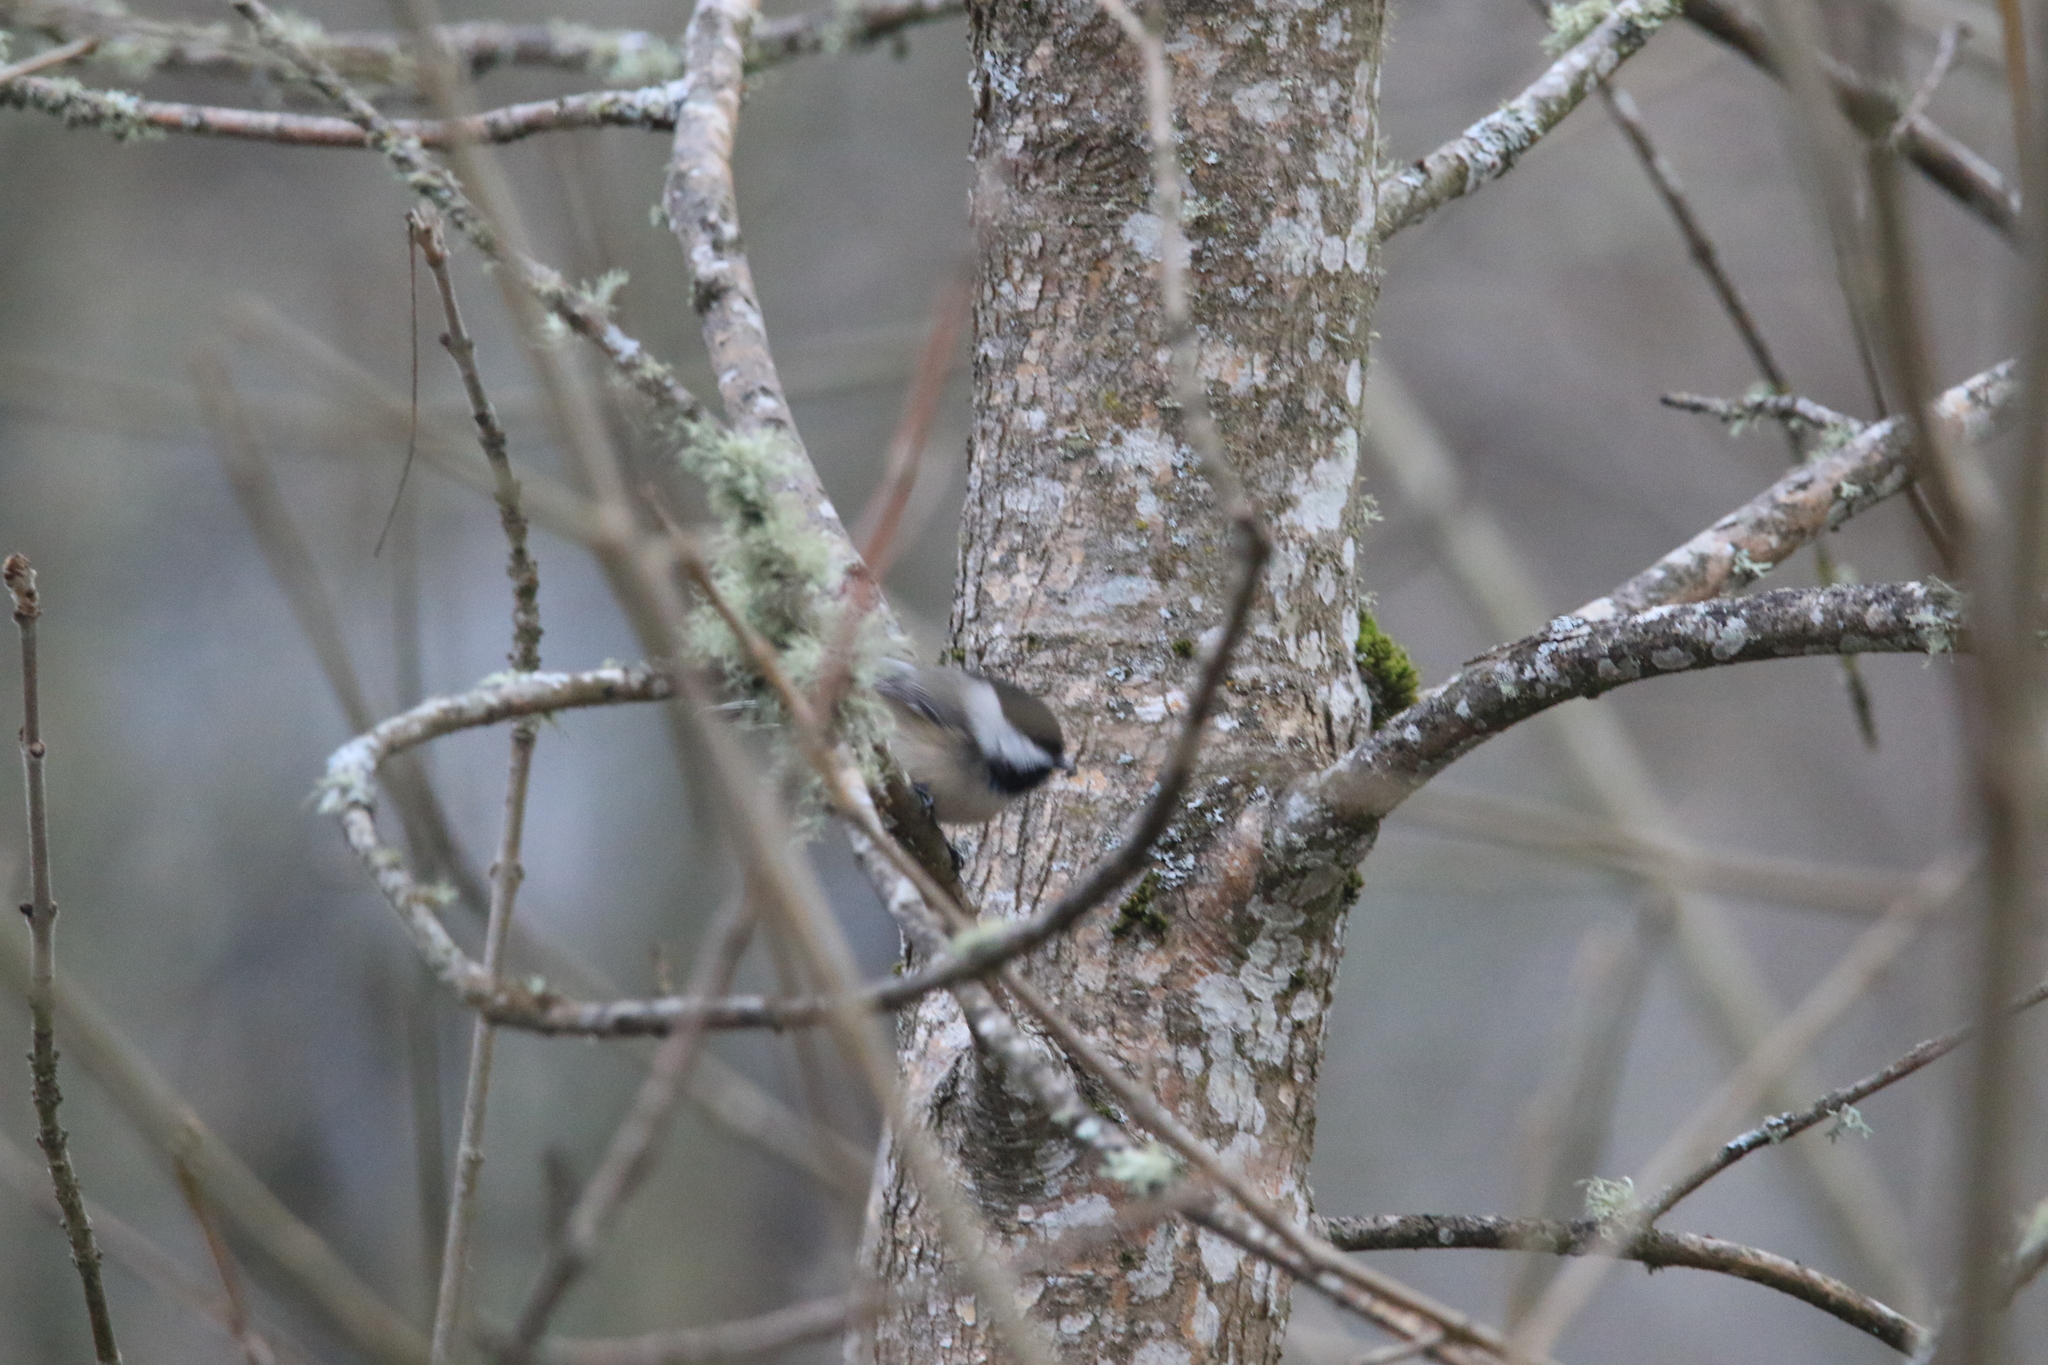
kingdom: Animalia
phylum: Chordata
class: Aves
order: Passeriformes
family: Paridae
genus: Poecile
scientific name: Poecile atricapillus
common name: Black-capped chickadee
